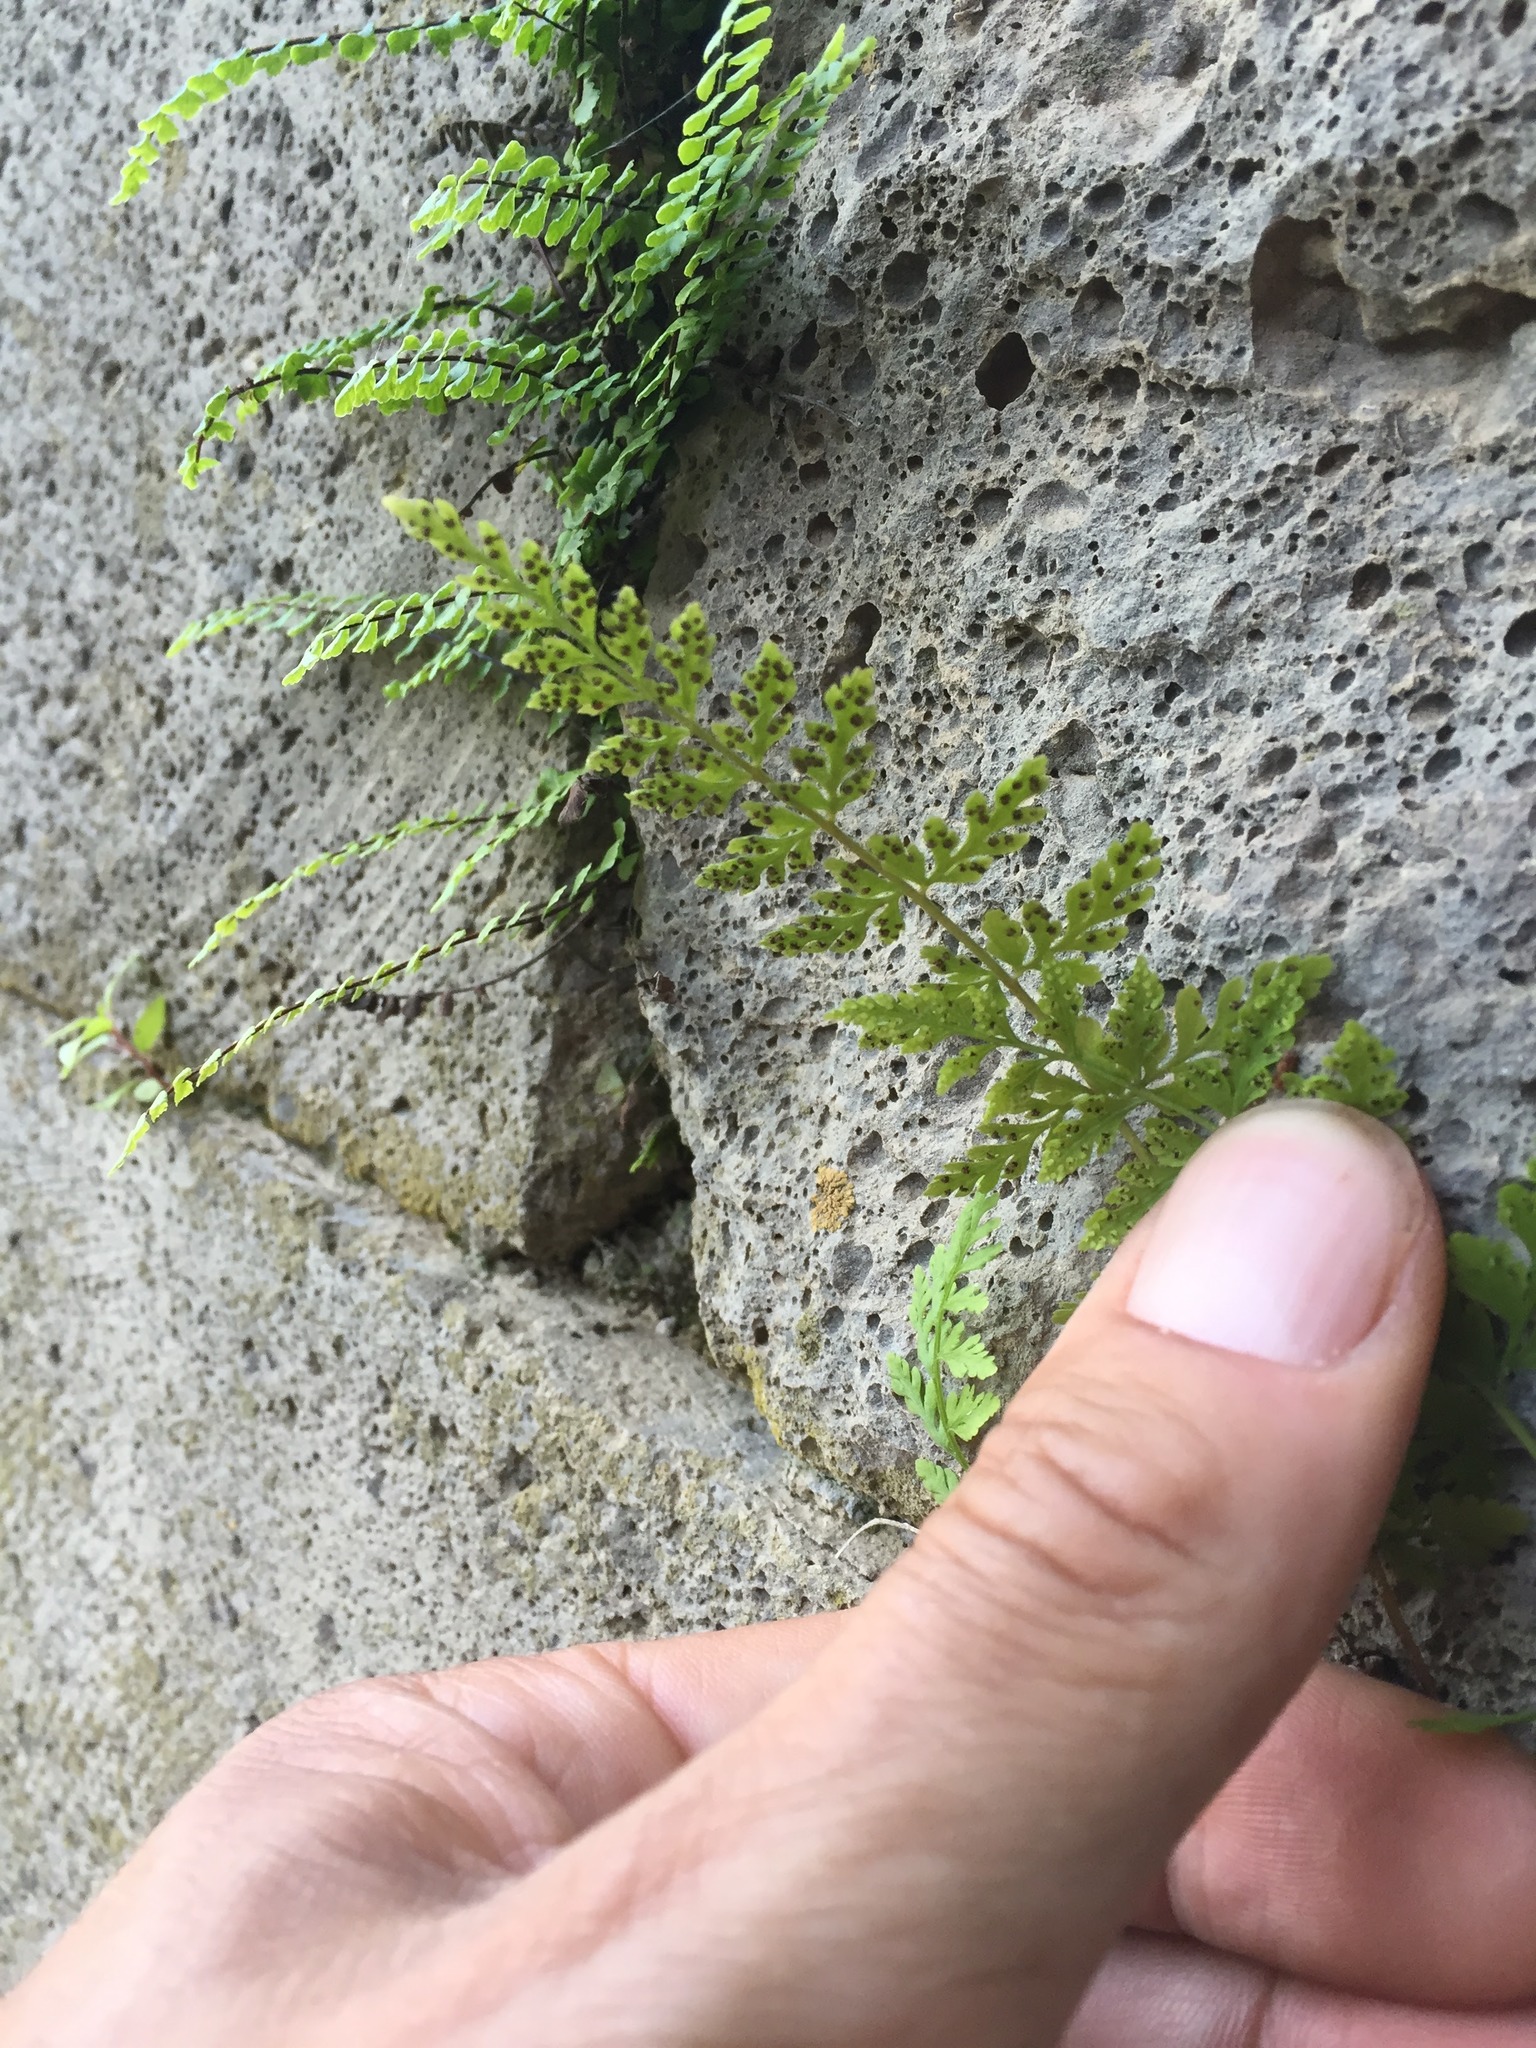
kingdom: Plantae
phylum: Tracheophyta
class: Polypodiopsida
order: Polypodiales
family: Cystopteridaceae
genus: Cystopteris
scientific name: Cystopteris fragilis
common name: Brittle bladder fern
